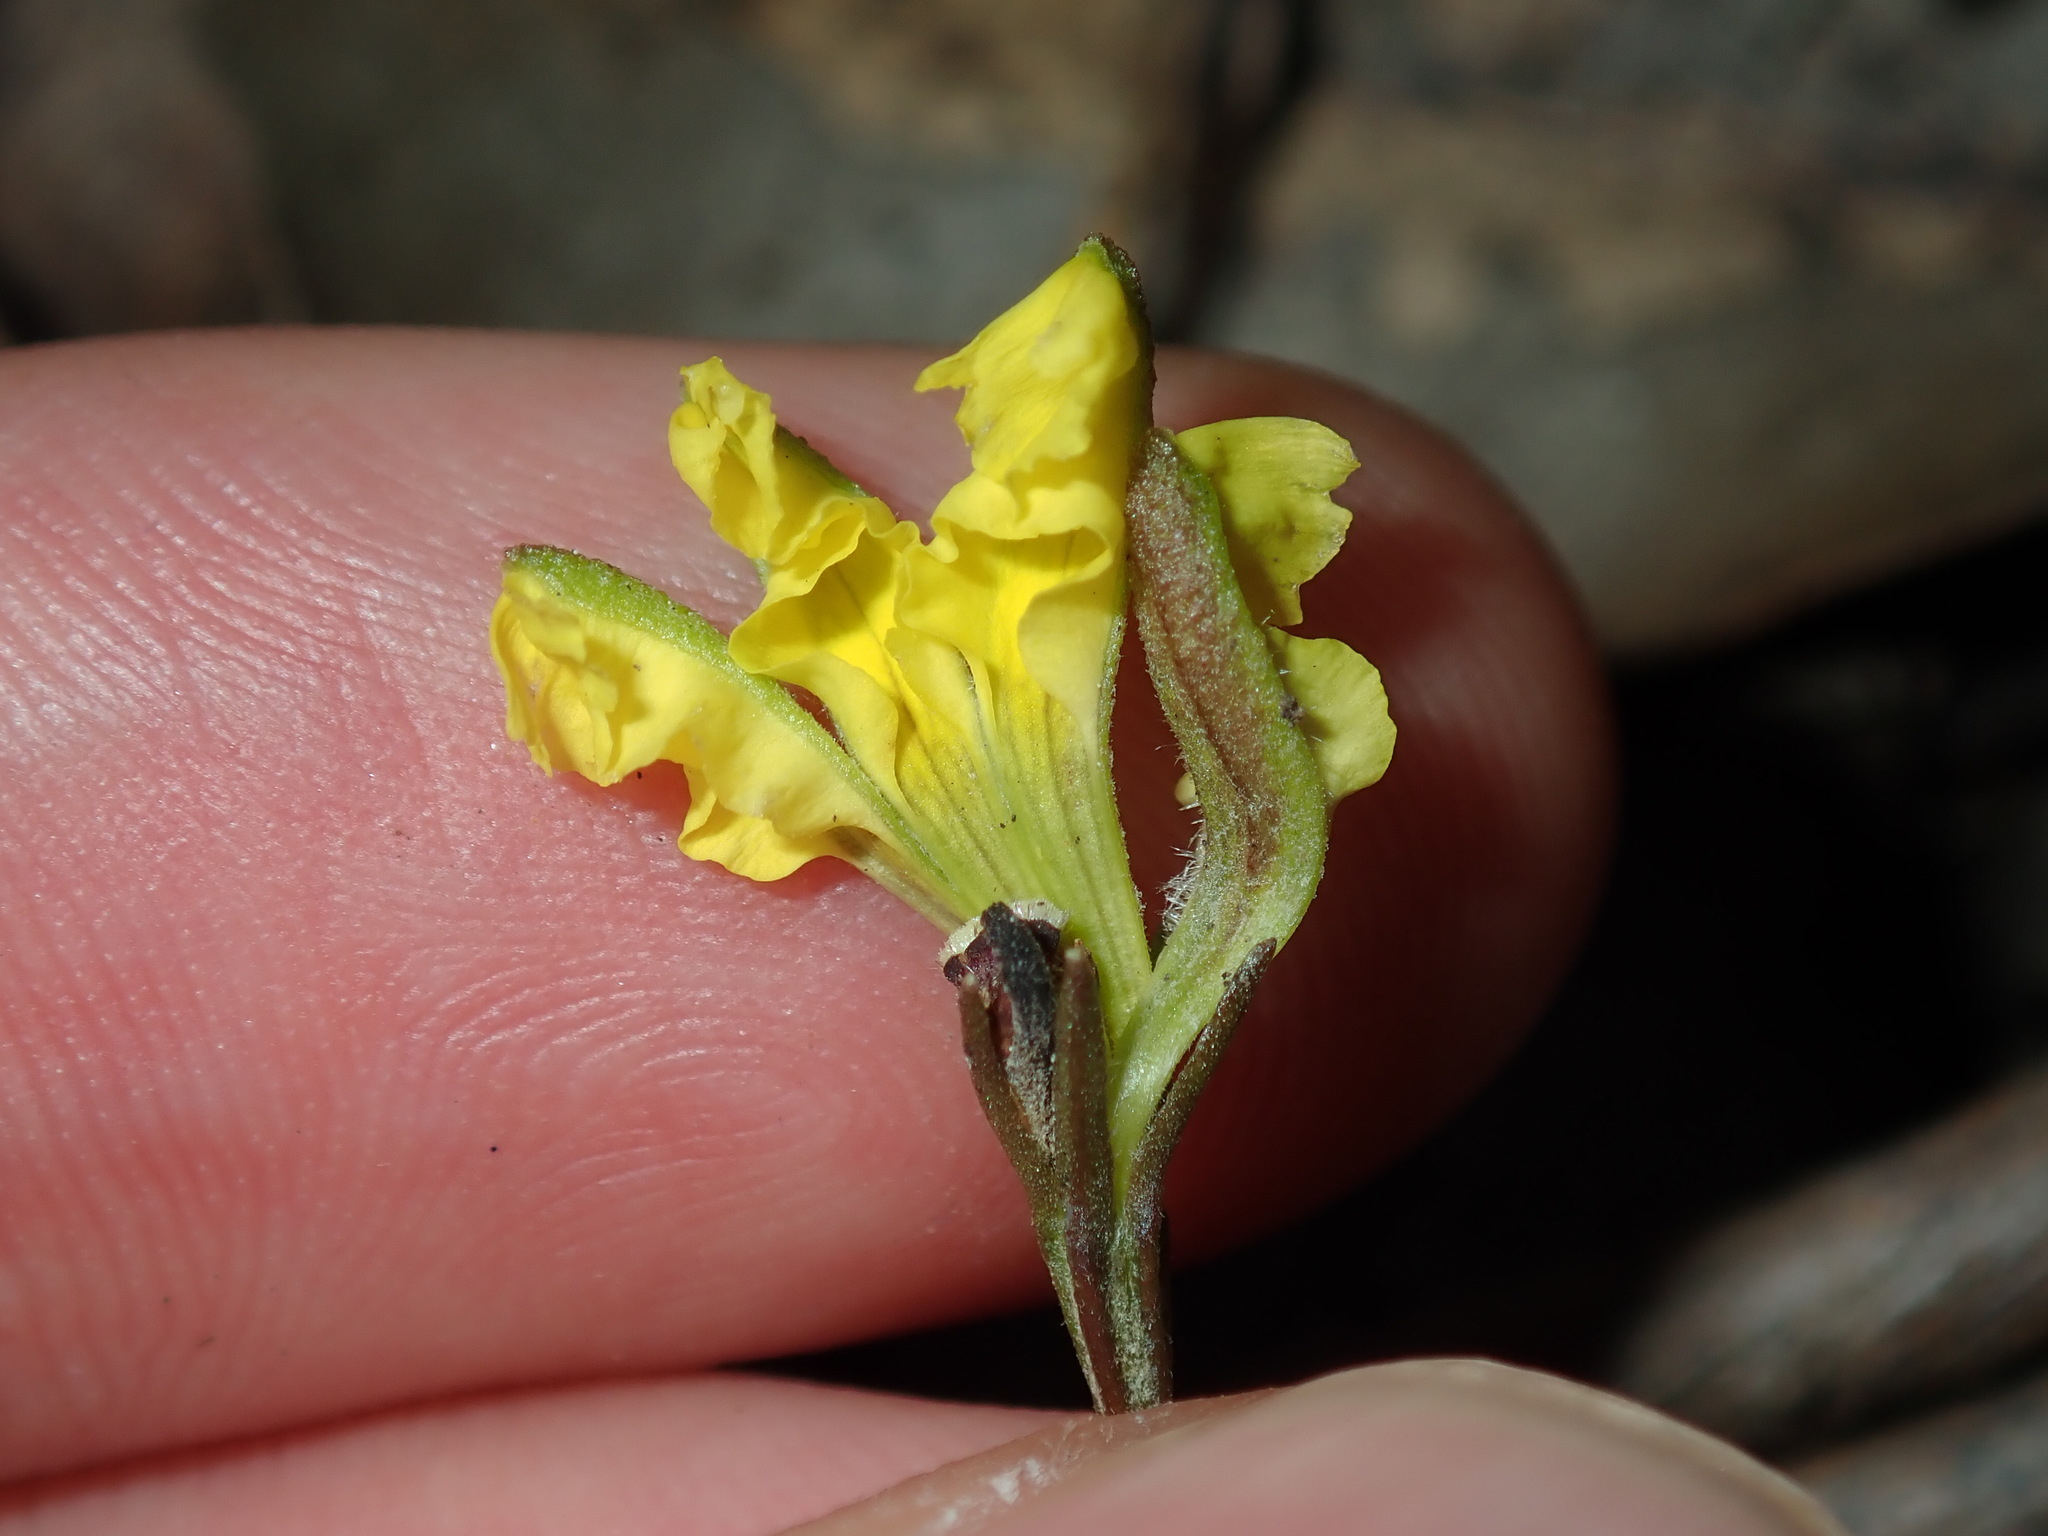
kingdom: Plantae
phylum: Tracheophyta
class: Magnoliopsida
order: Asterales
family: Goodeniaceae
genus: Goodenia
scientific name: Goodenia hederacea
